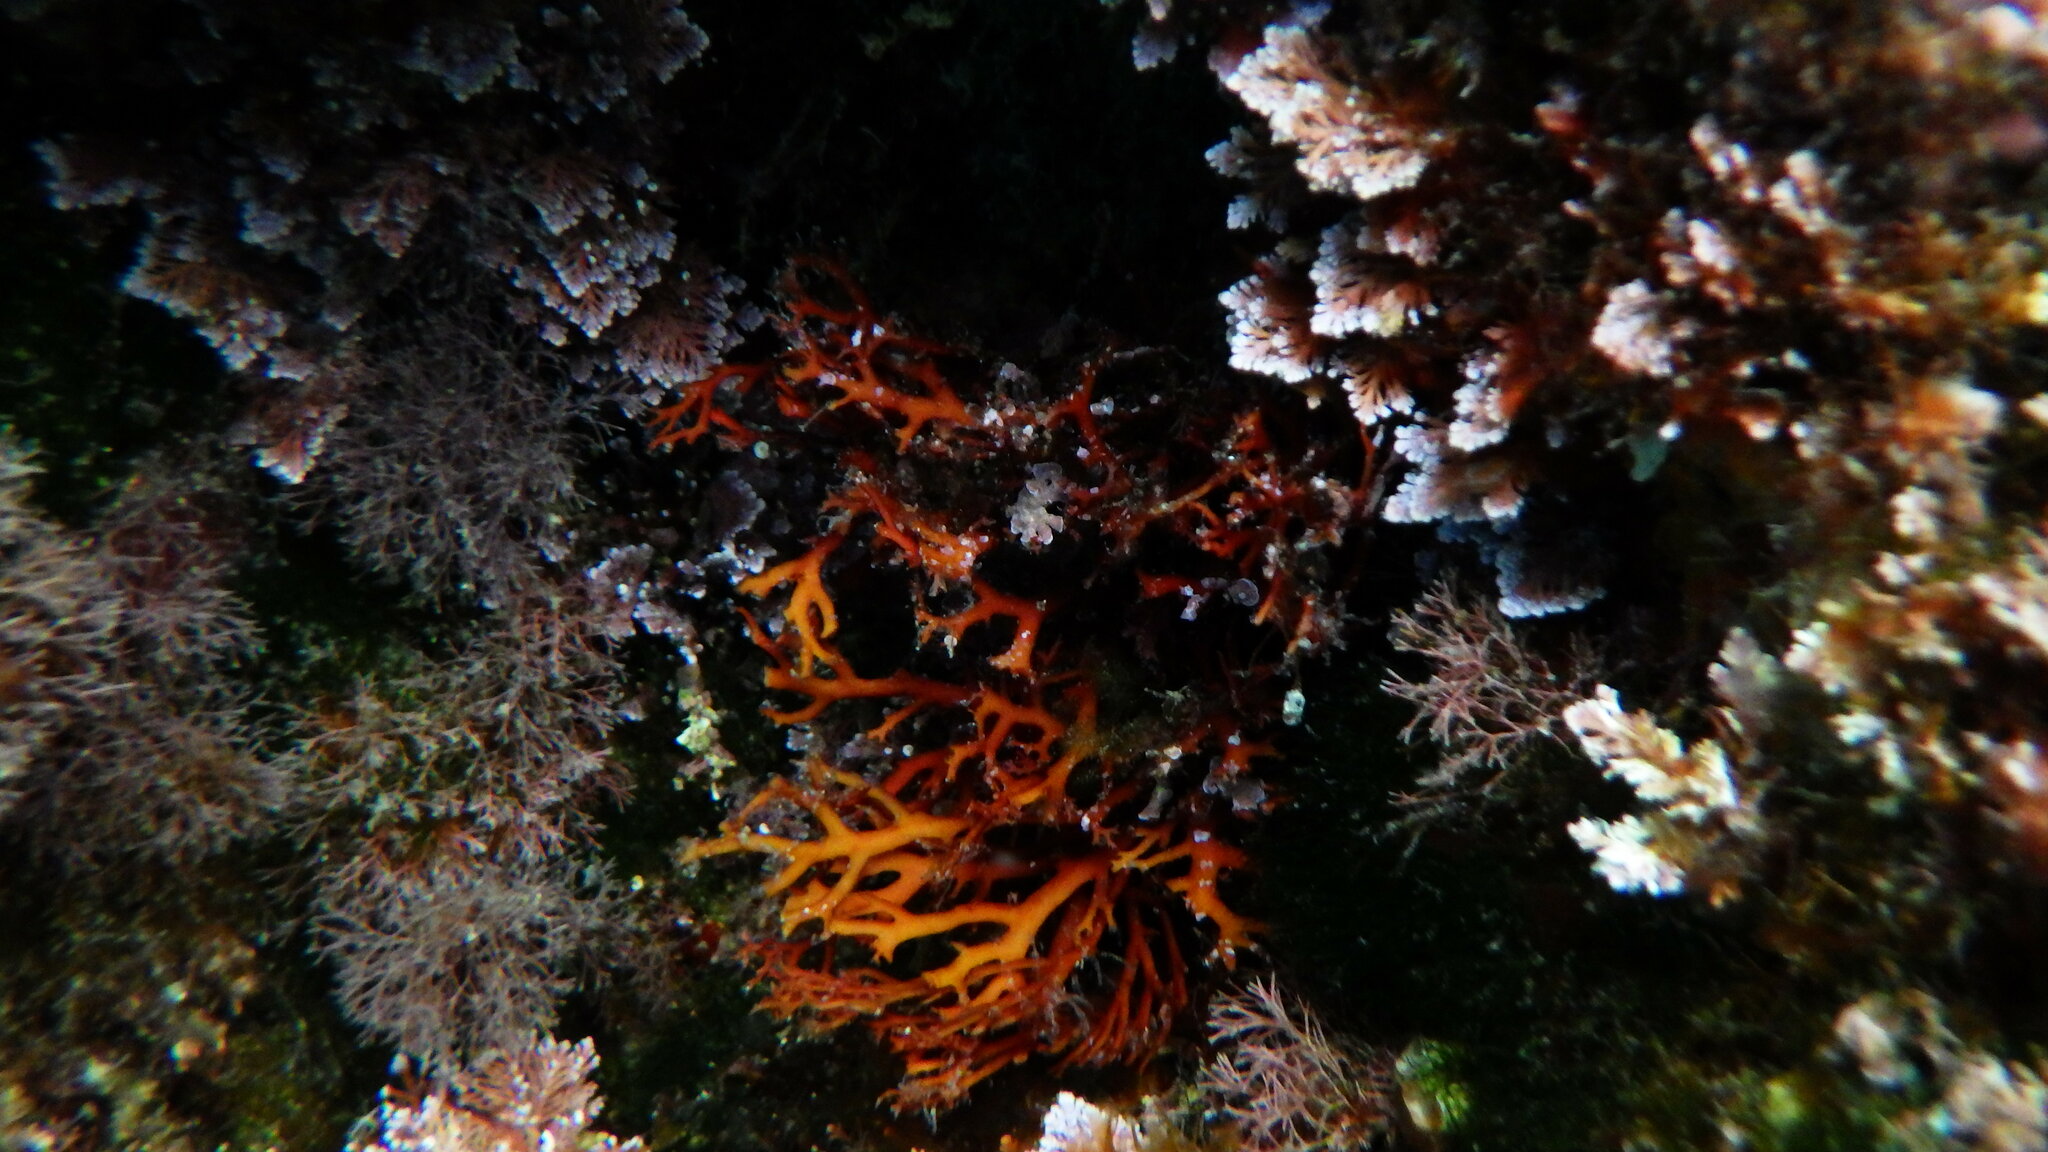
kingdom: Plantae
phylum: Rhodophyta
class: Florideophyceae
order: Gigartinales
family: Sphaerococcaceae
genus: Sphaerococcus
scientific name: Sphaerococcus coronopifolius
